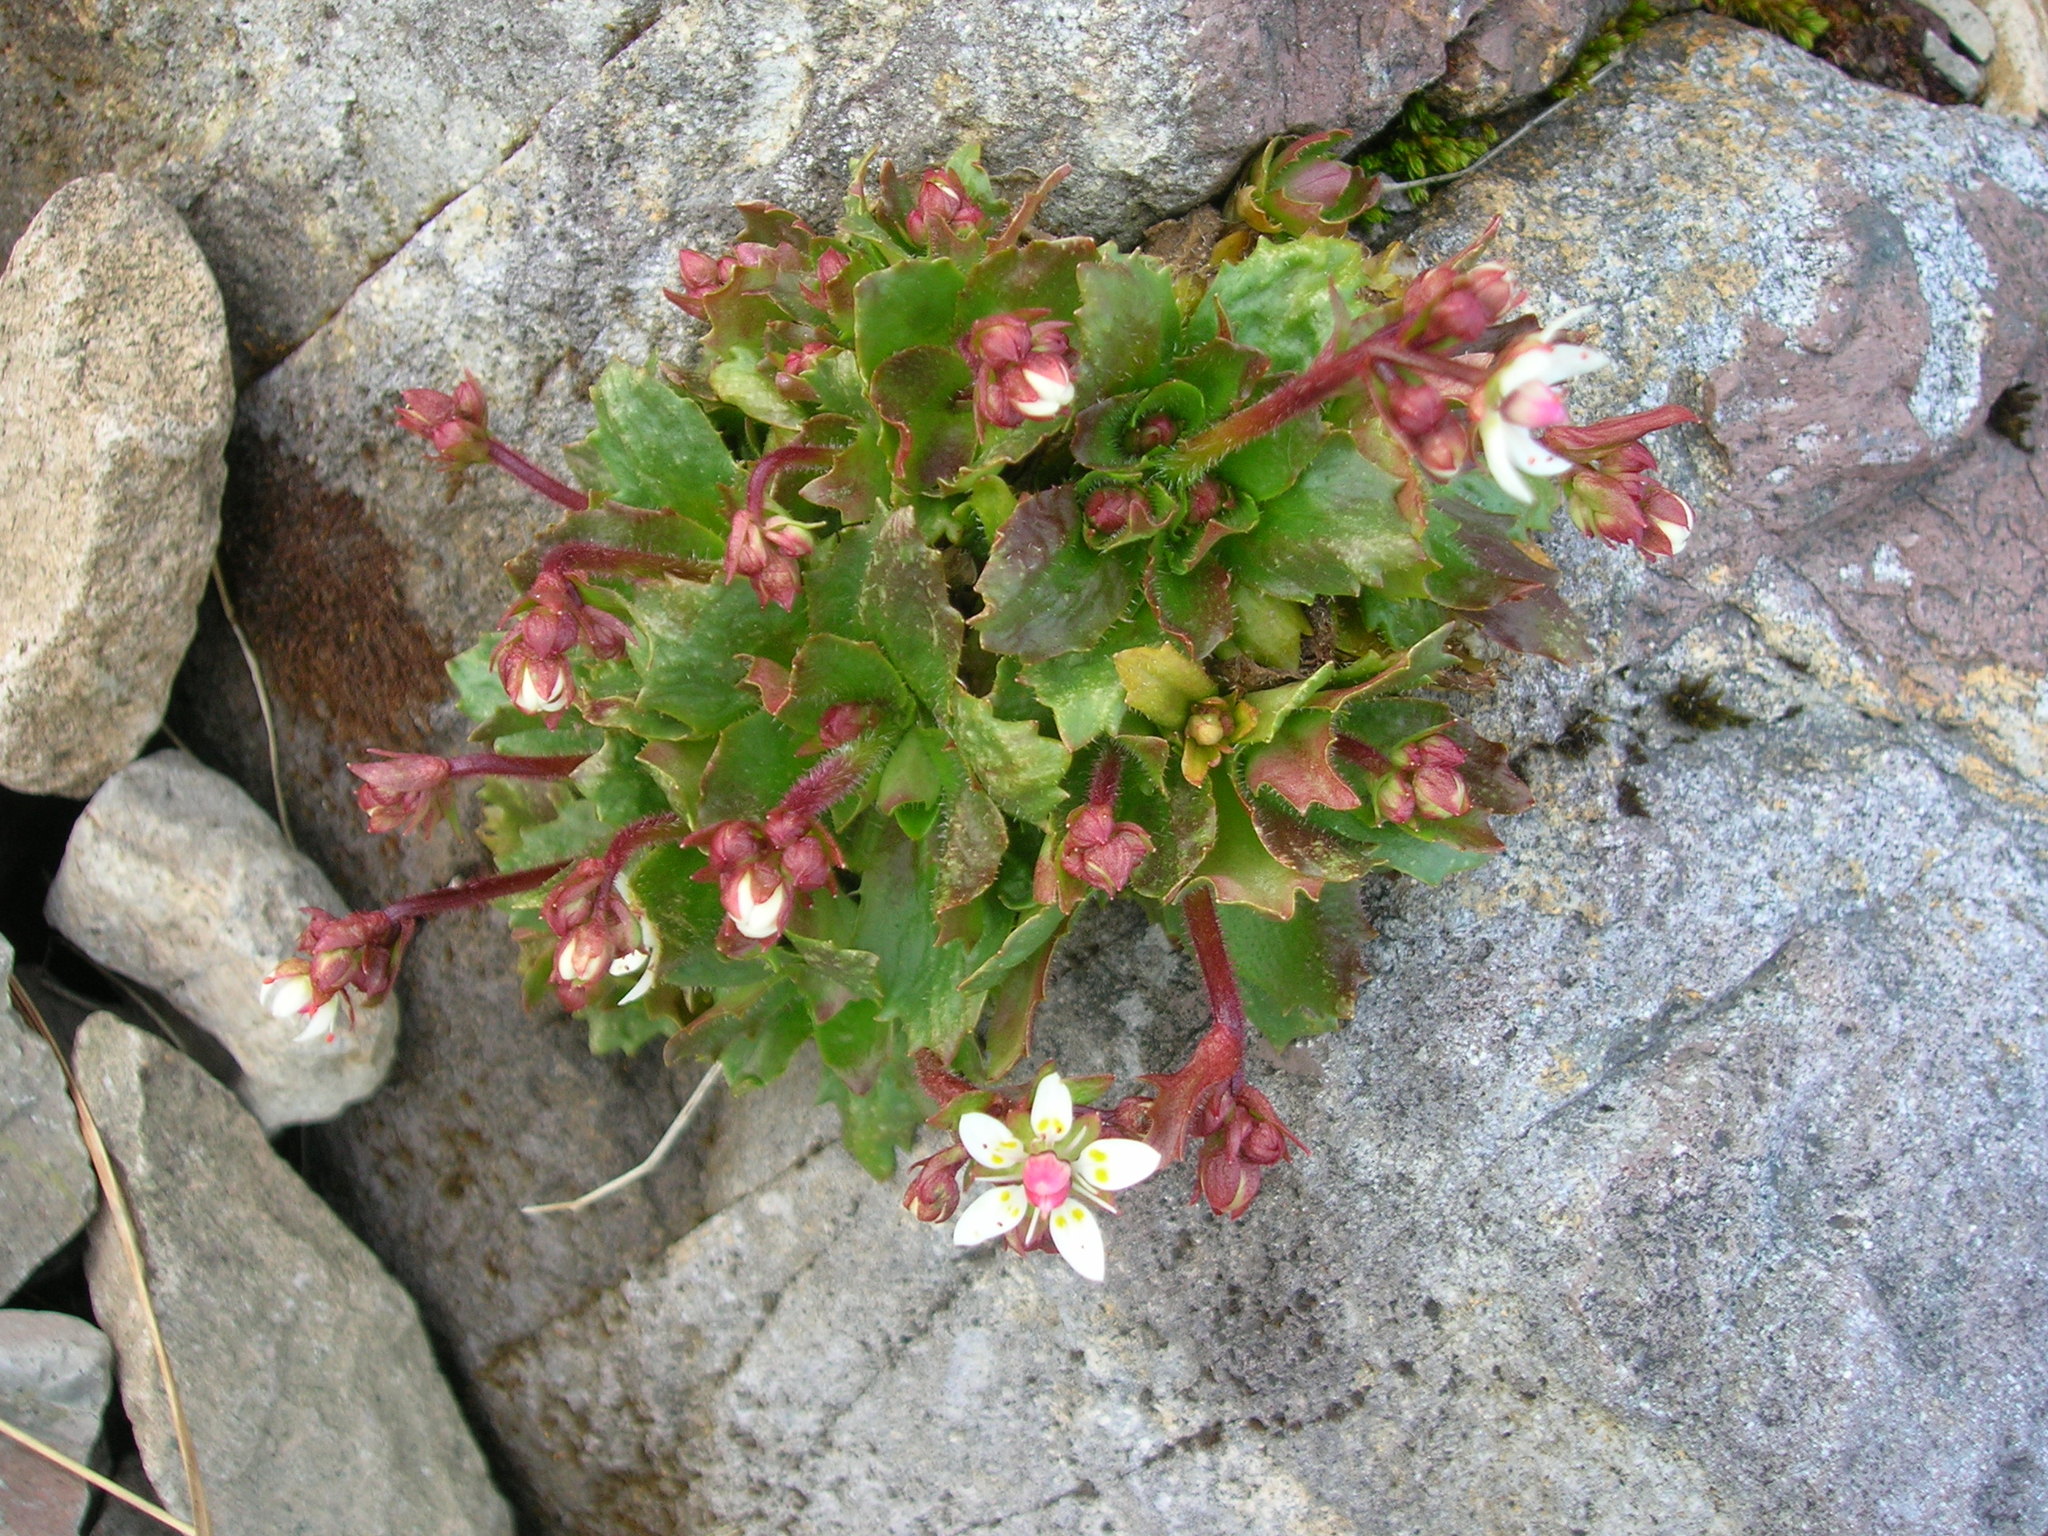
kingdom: Plantae
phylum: Tracheophyta
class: Magnoliopsida
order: Saxifragales
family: Saxifragaceae
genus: Micranthes
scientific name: Micranthes stellaris
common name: Starry saxifrage
